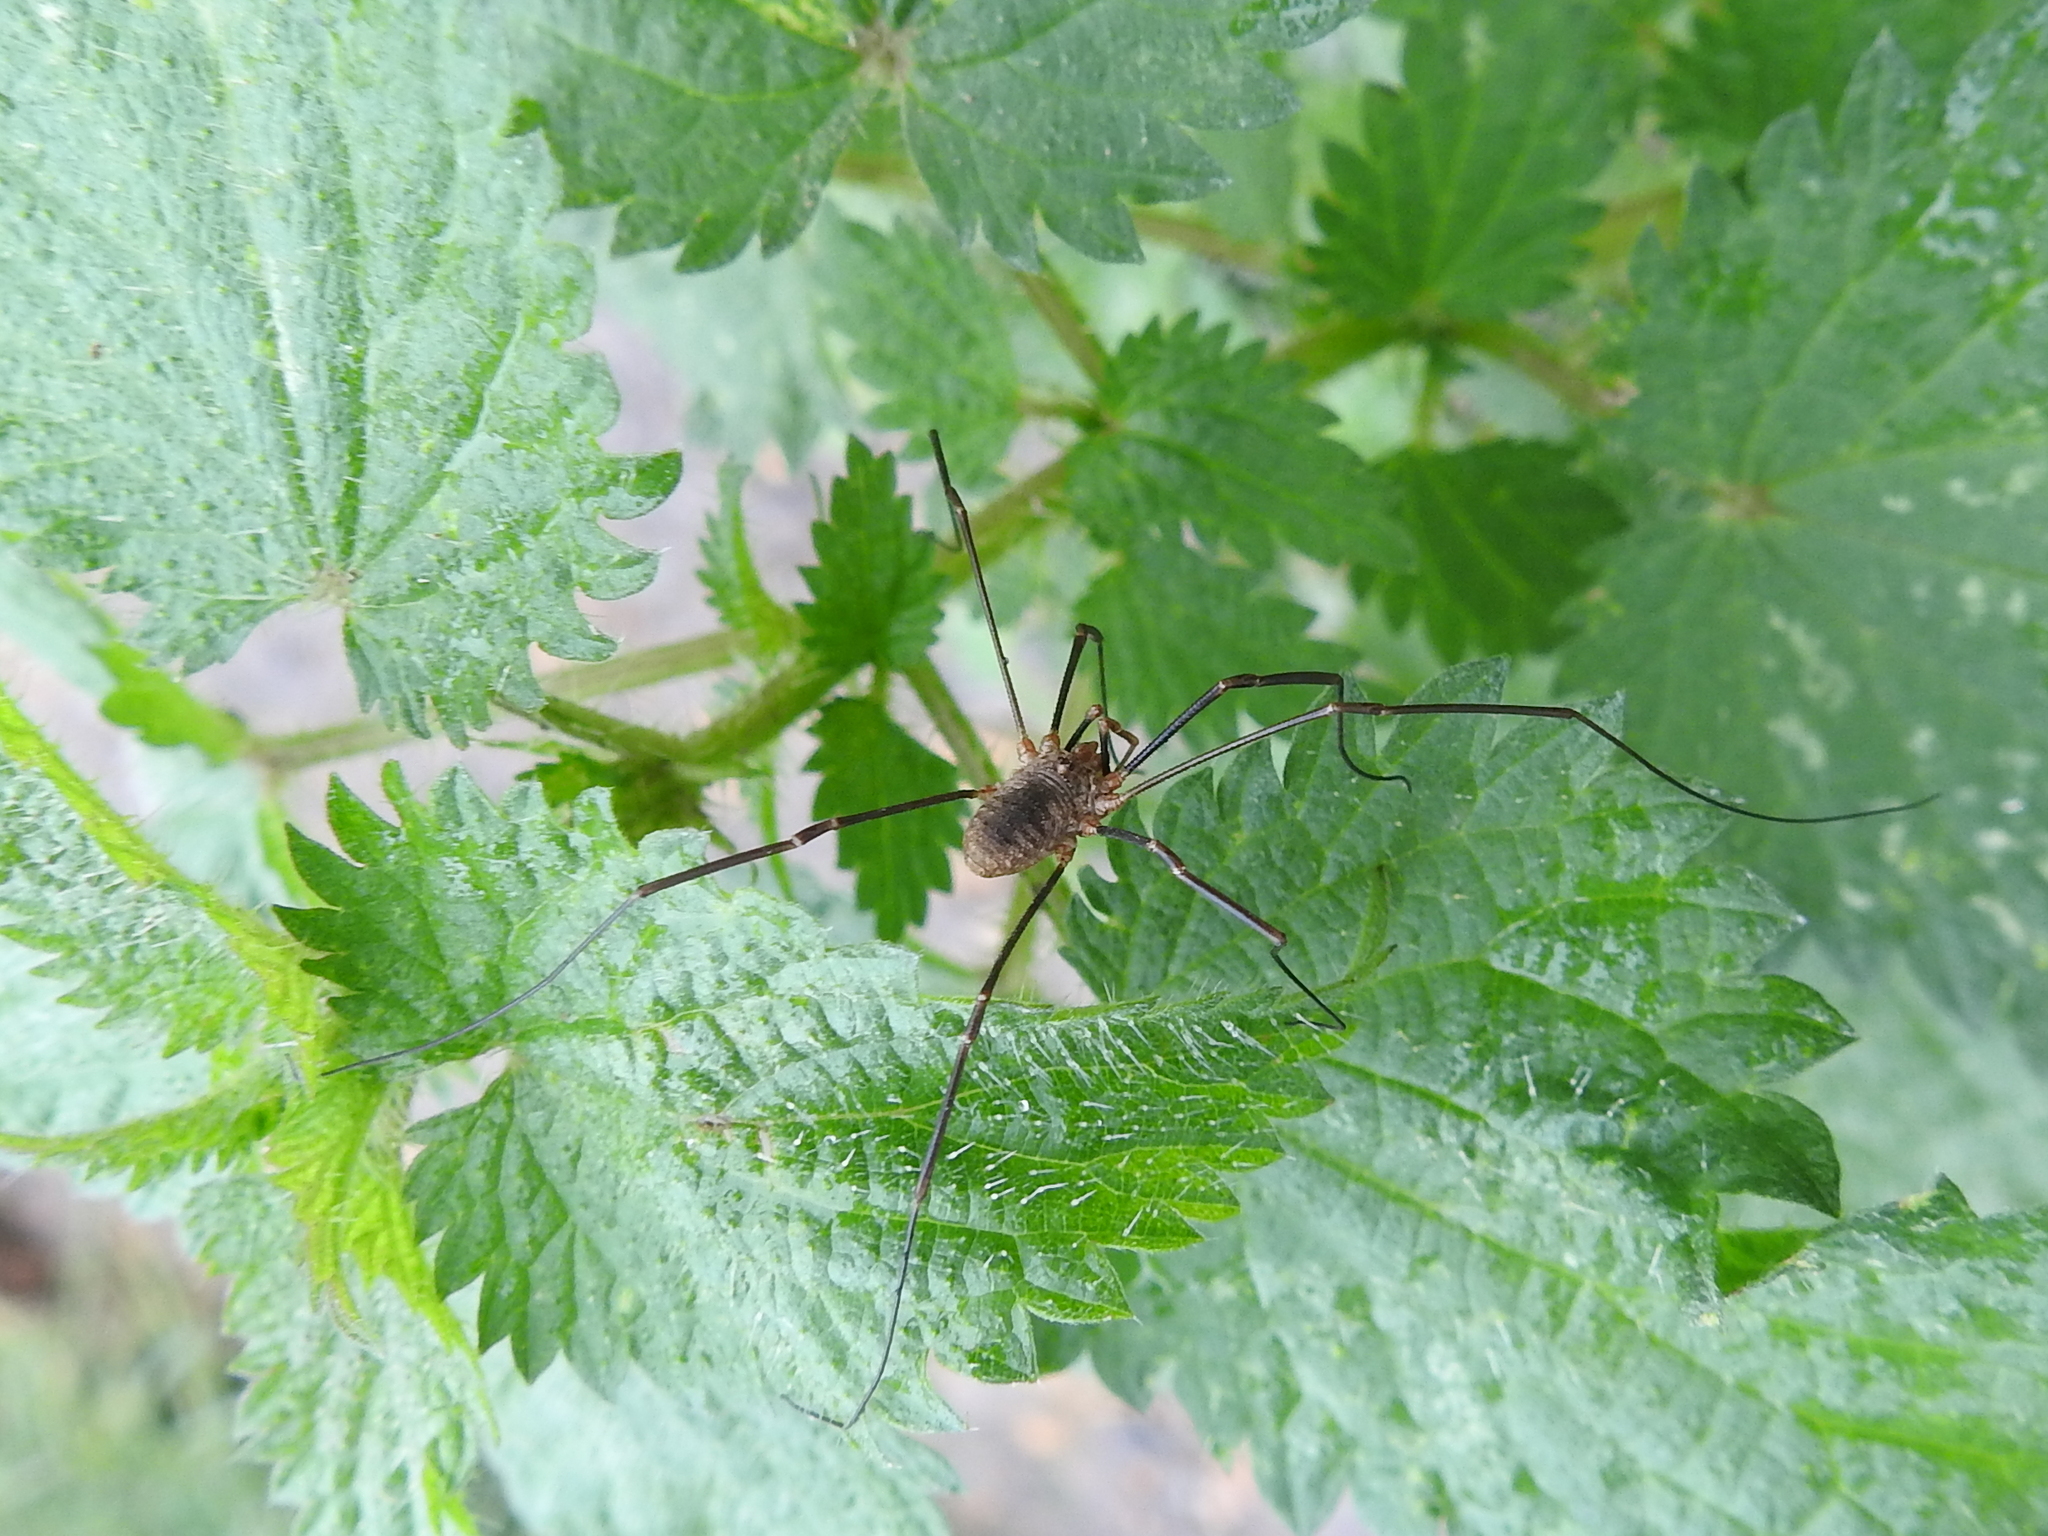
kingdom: Animalia
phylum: Arthropoda
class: Arachnida
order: Opiliones
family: Phalangiidae
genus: Phalangium
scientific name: Phalangium opilio
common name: Daddy longleg
